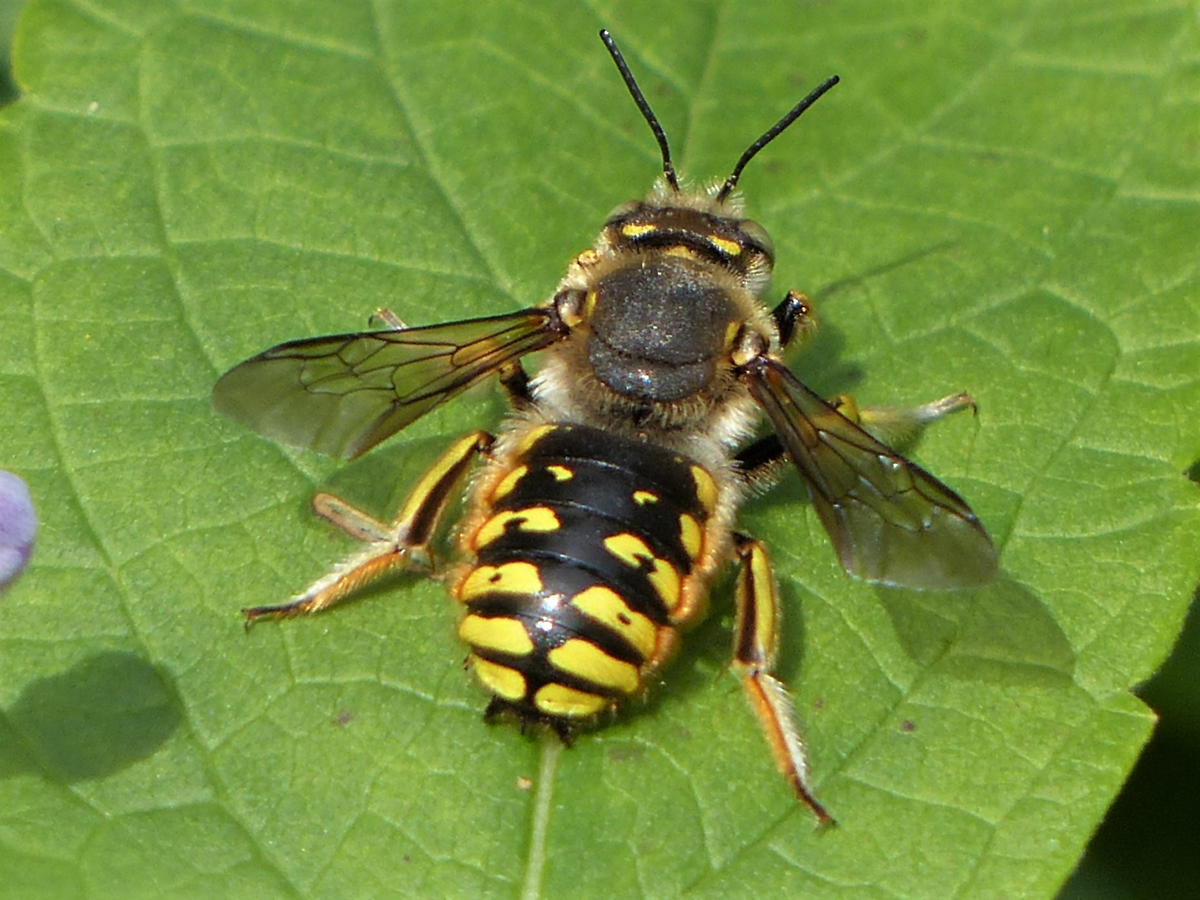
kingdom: Animalia
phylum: Arthropoda
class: Insecta
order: Hymenoptera
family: Megachilidae
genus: Anthidium
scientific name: Anthidium manicatum
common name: Wool carder bee
